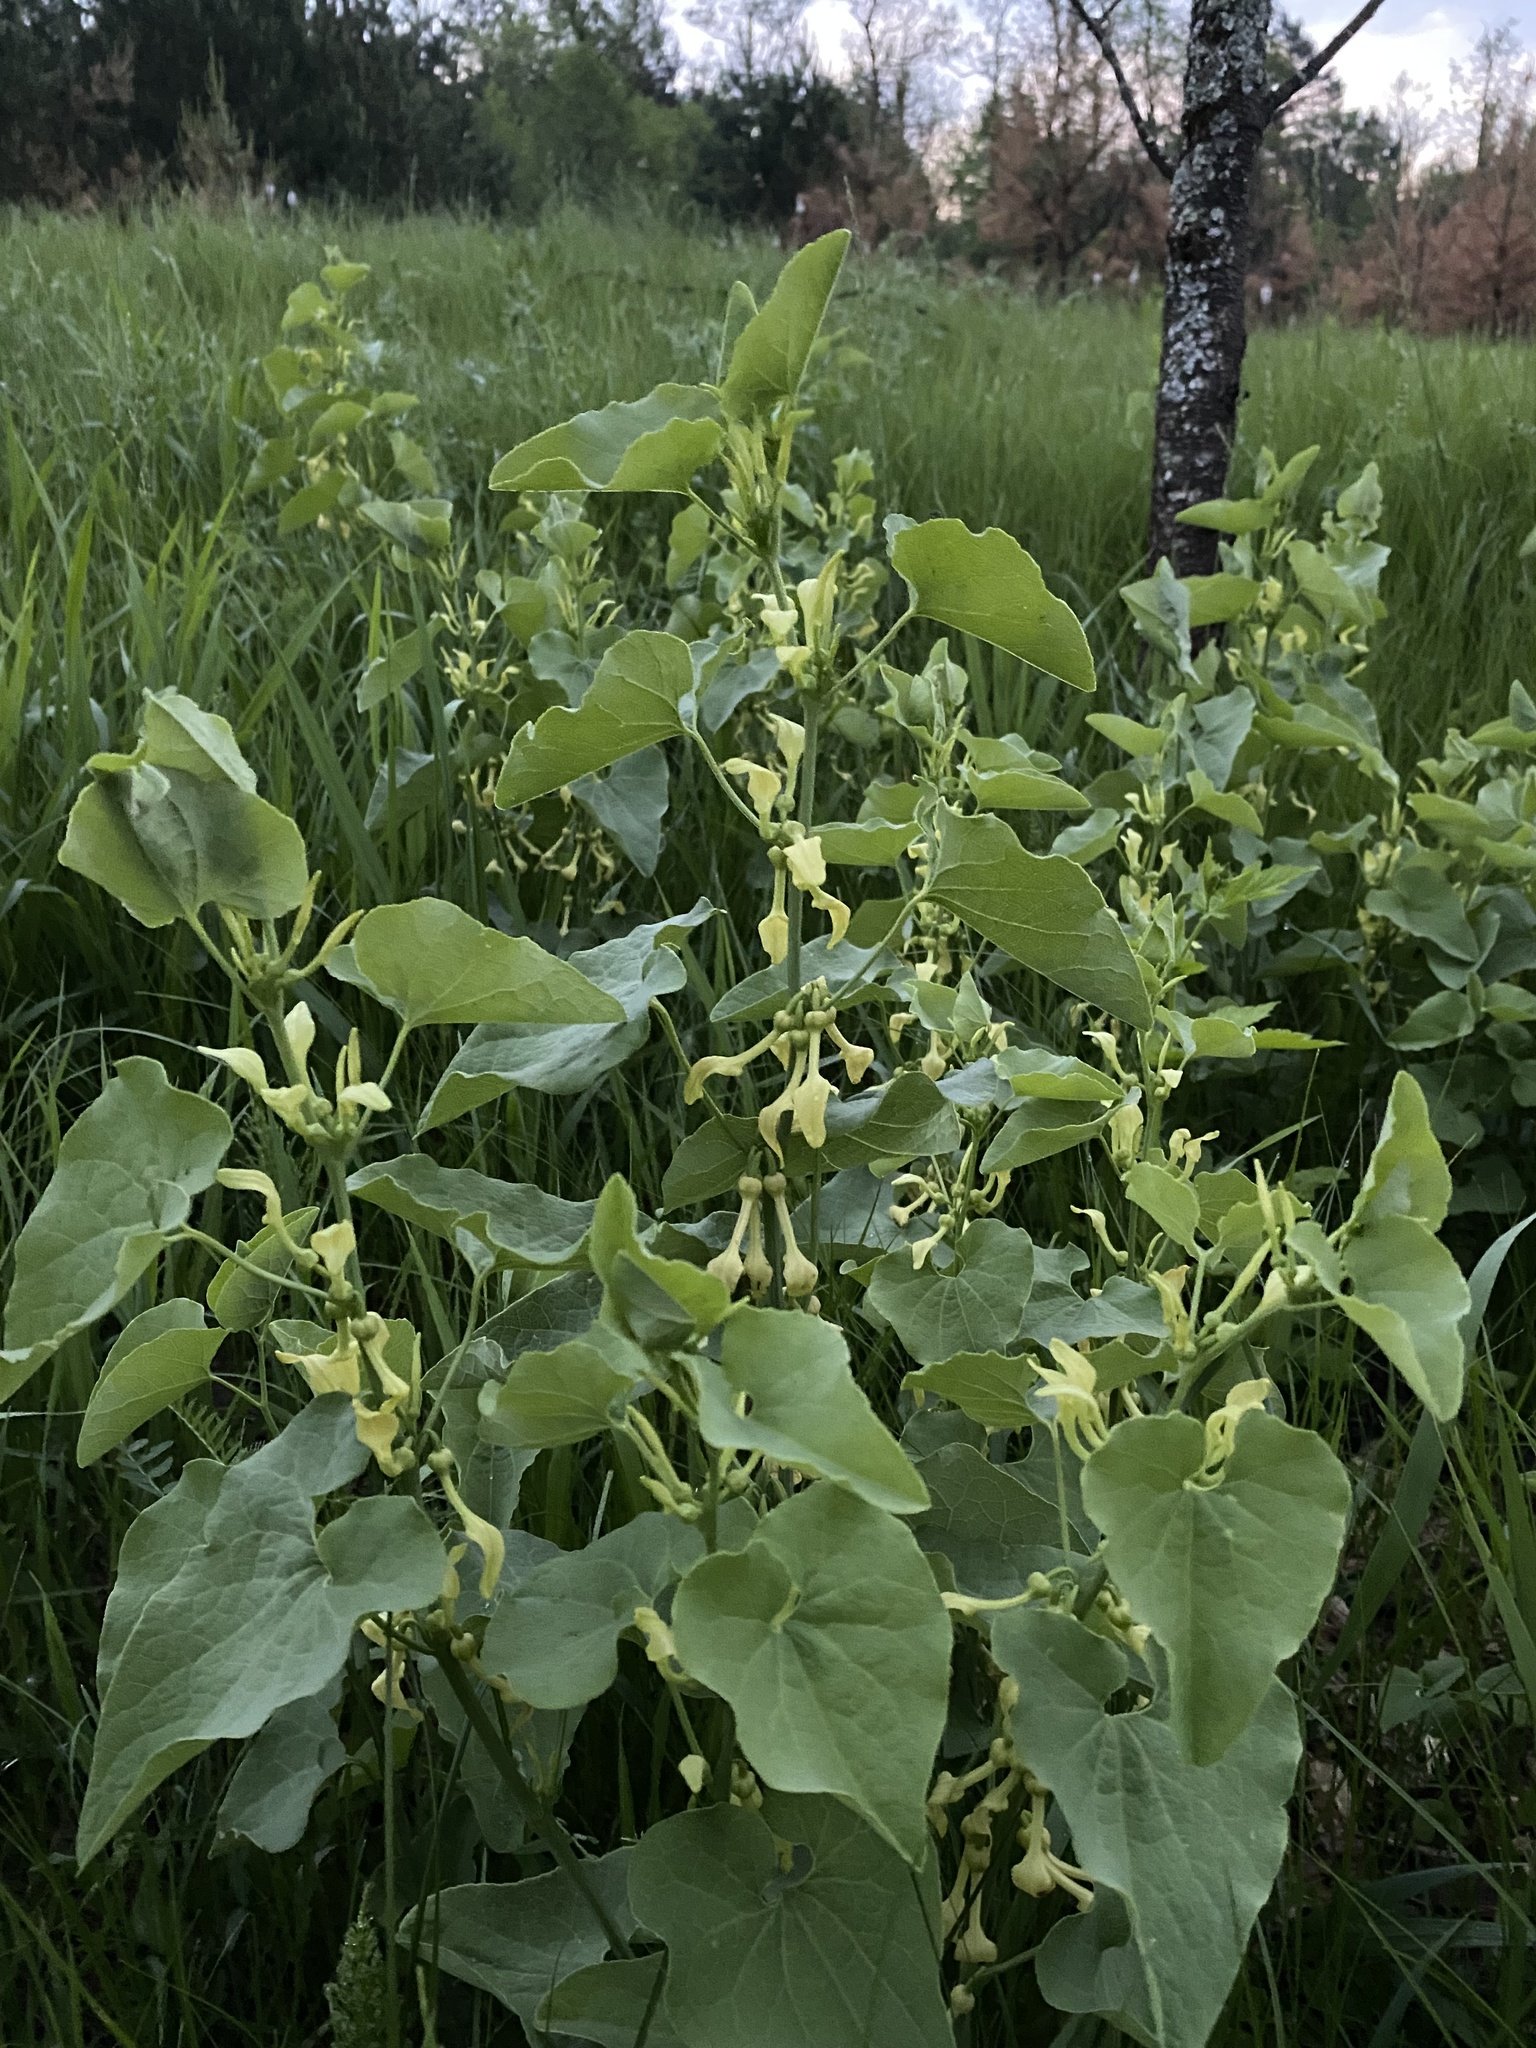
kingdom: Plantae
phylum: Tracheophyta
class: Magnoliopsida
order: Piperales
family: Aristolochiaceae
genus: Aristolochia
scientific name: Aristolochia clematitis
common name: Birthwort
